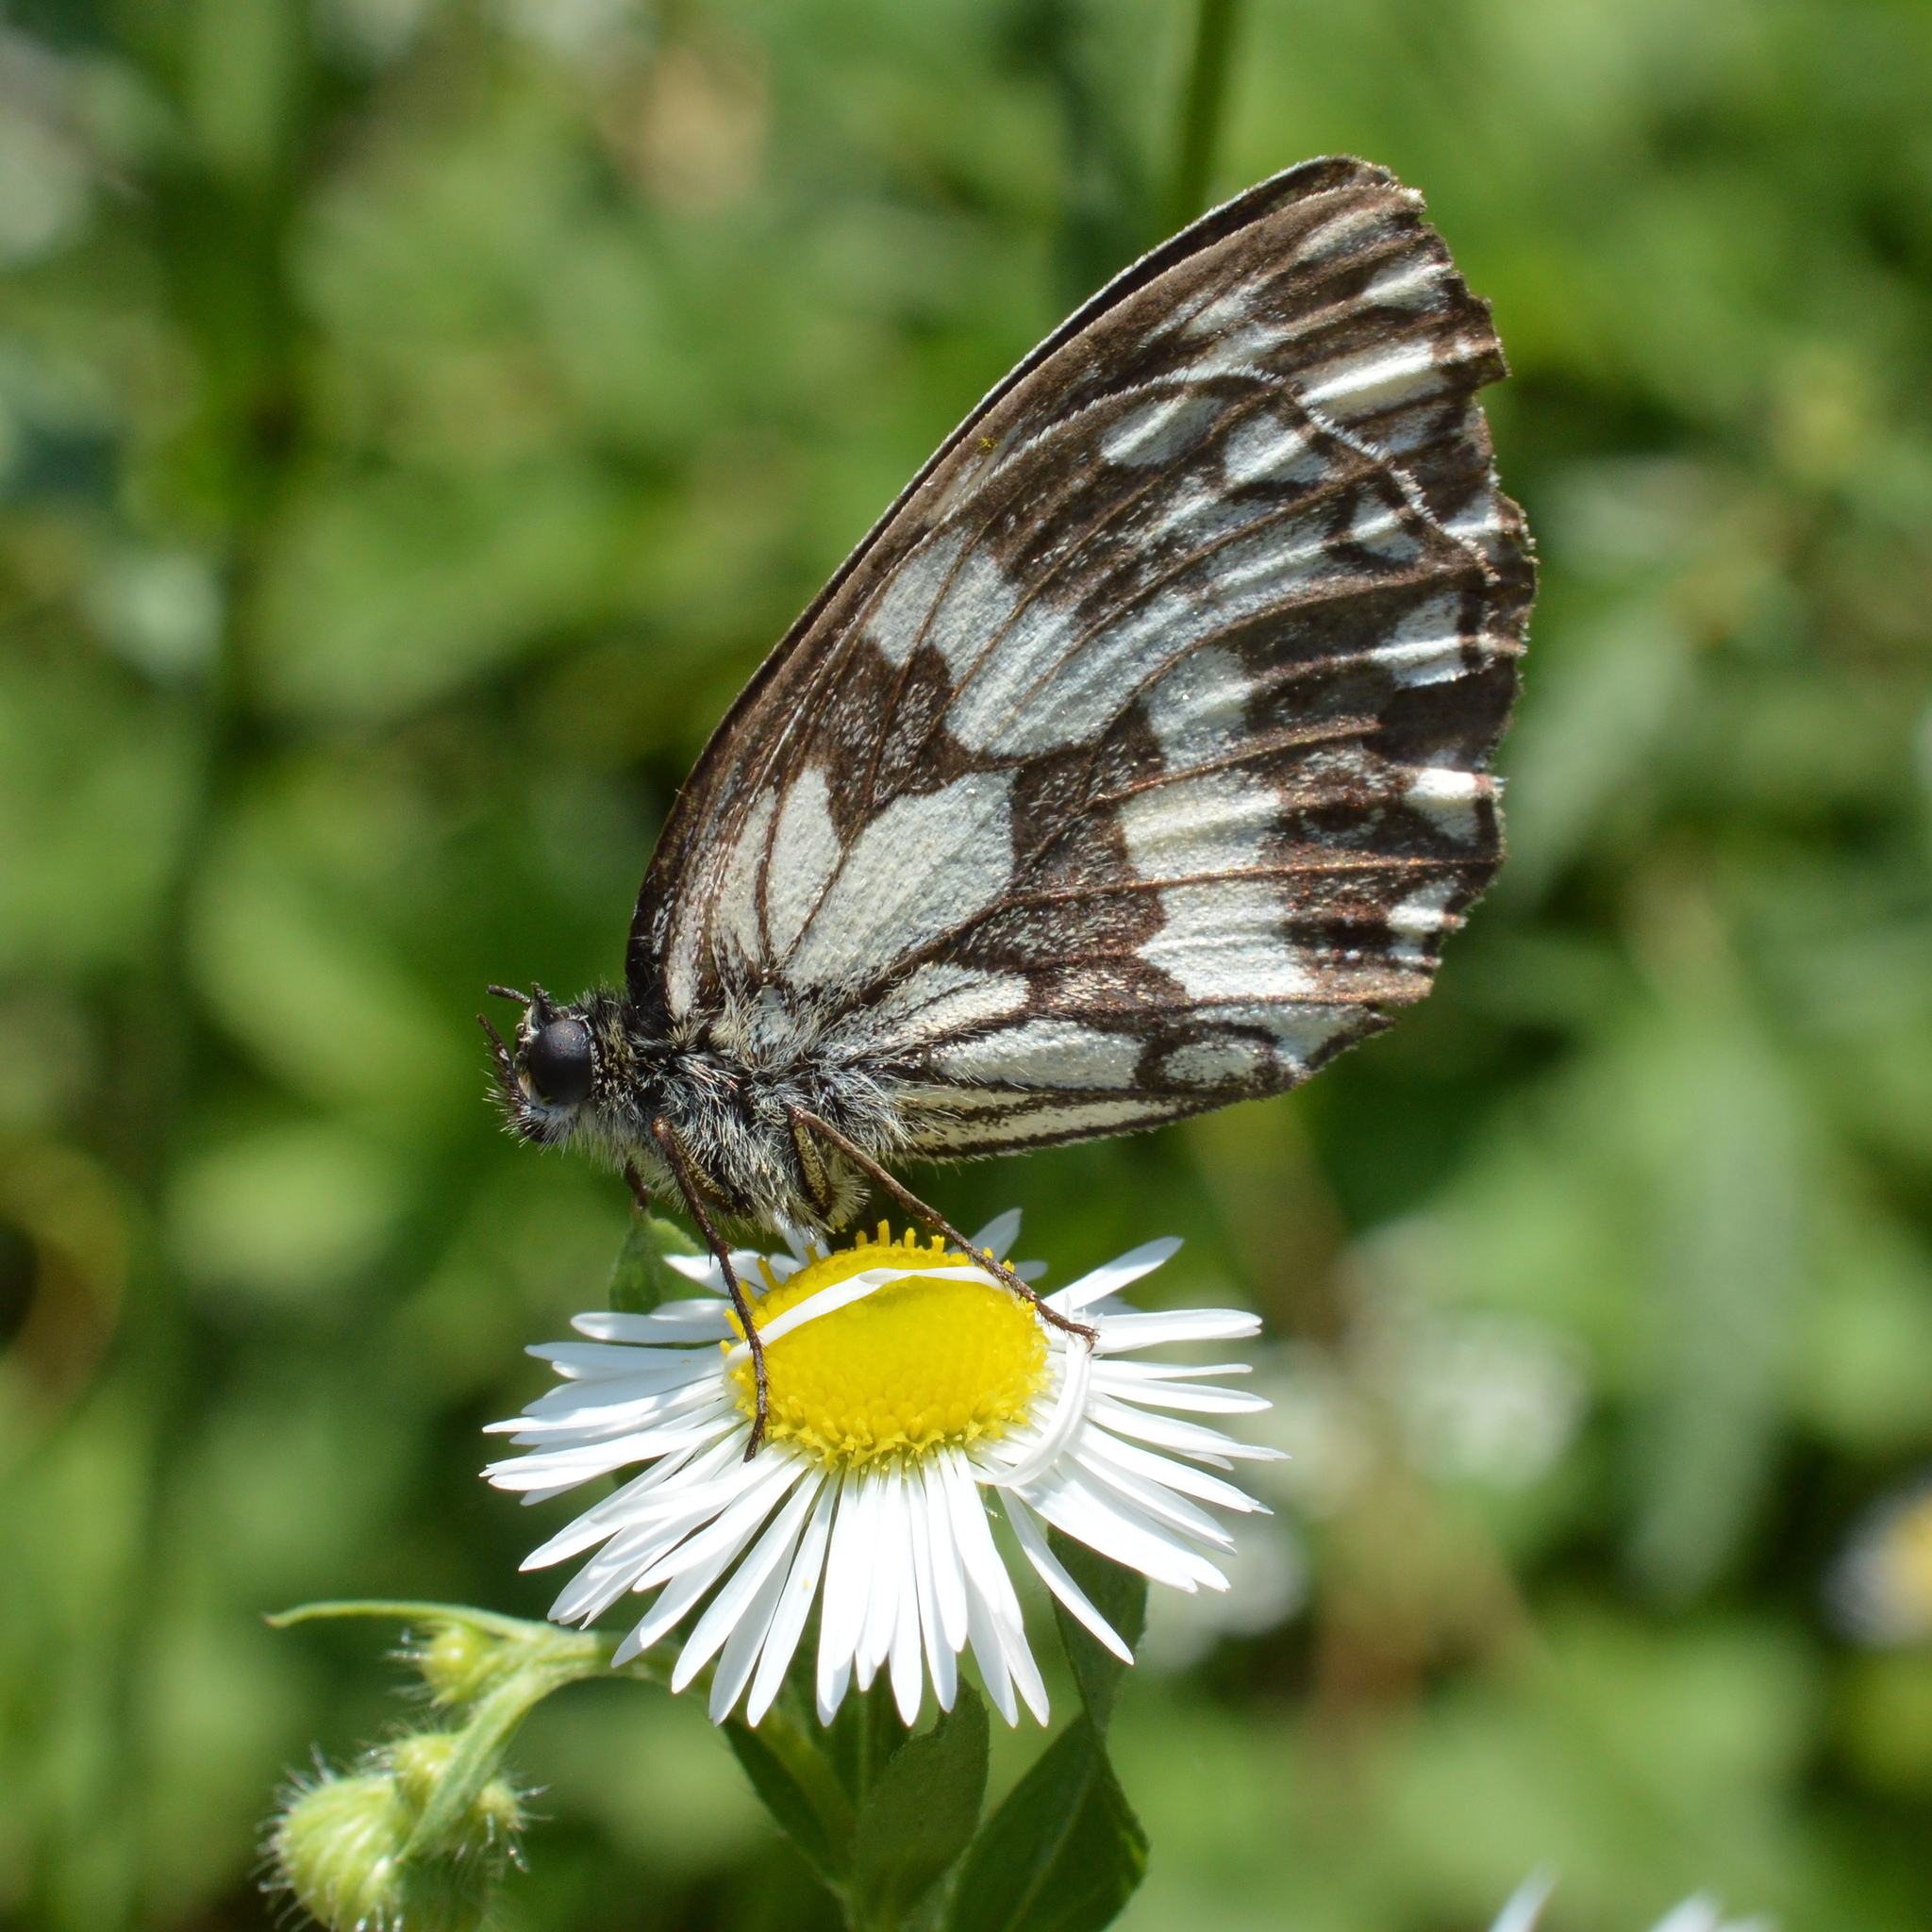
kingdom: Animalia
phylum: Arthropoda
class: Insecta
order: Lepidoptera
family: Nymphalidae
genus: Melanargia
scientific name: Melanargia galathea
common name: Marbled white
